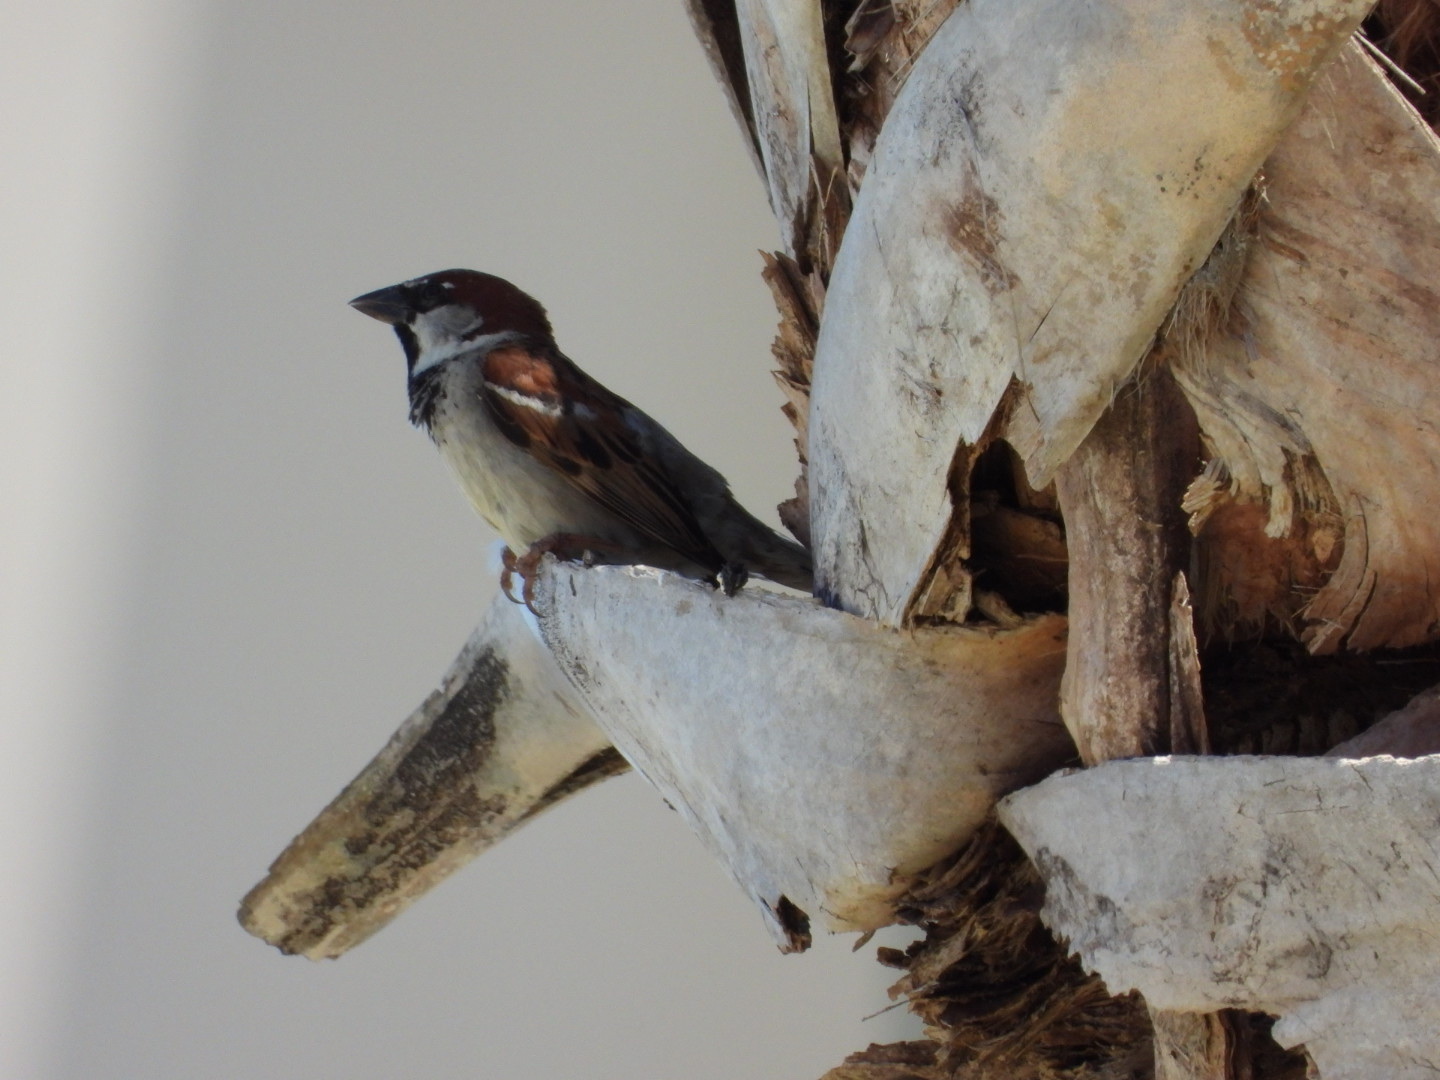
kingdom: Animalia
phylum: Chordata
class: Aves
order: Passeriformes
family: Passeridae
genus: Passer
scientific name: Passer domesticus
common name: House sparrow
